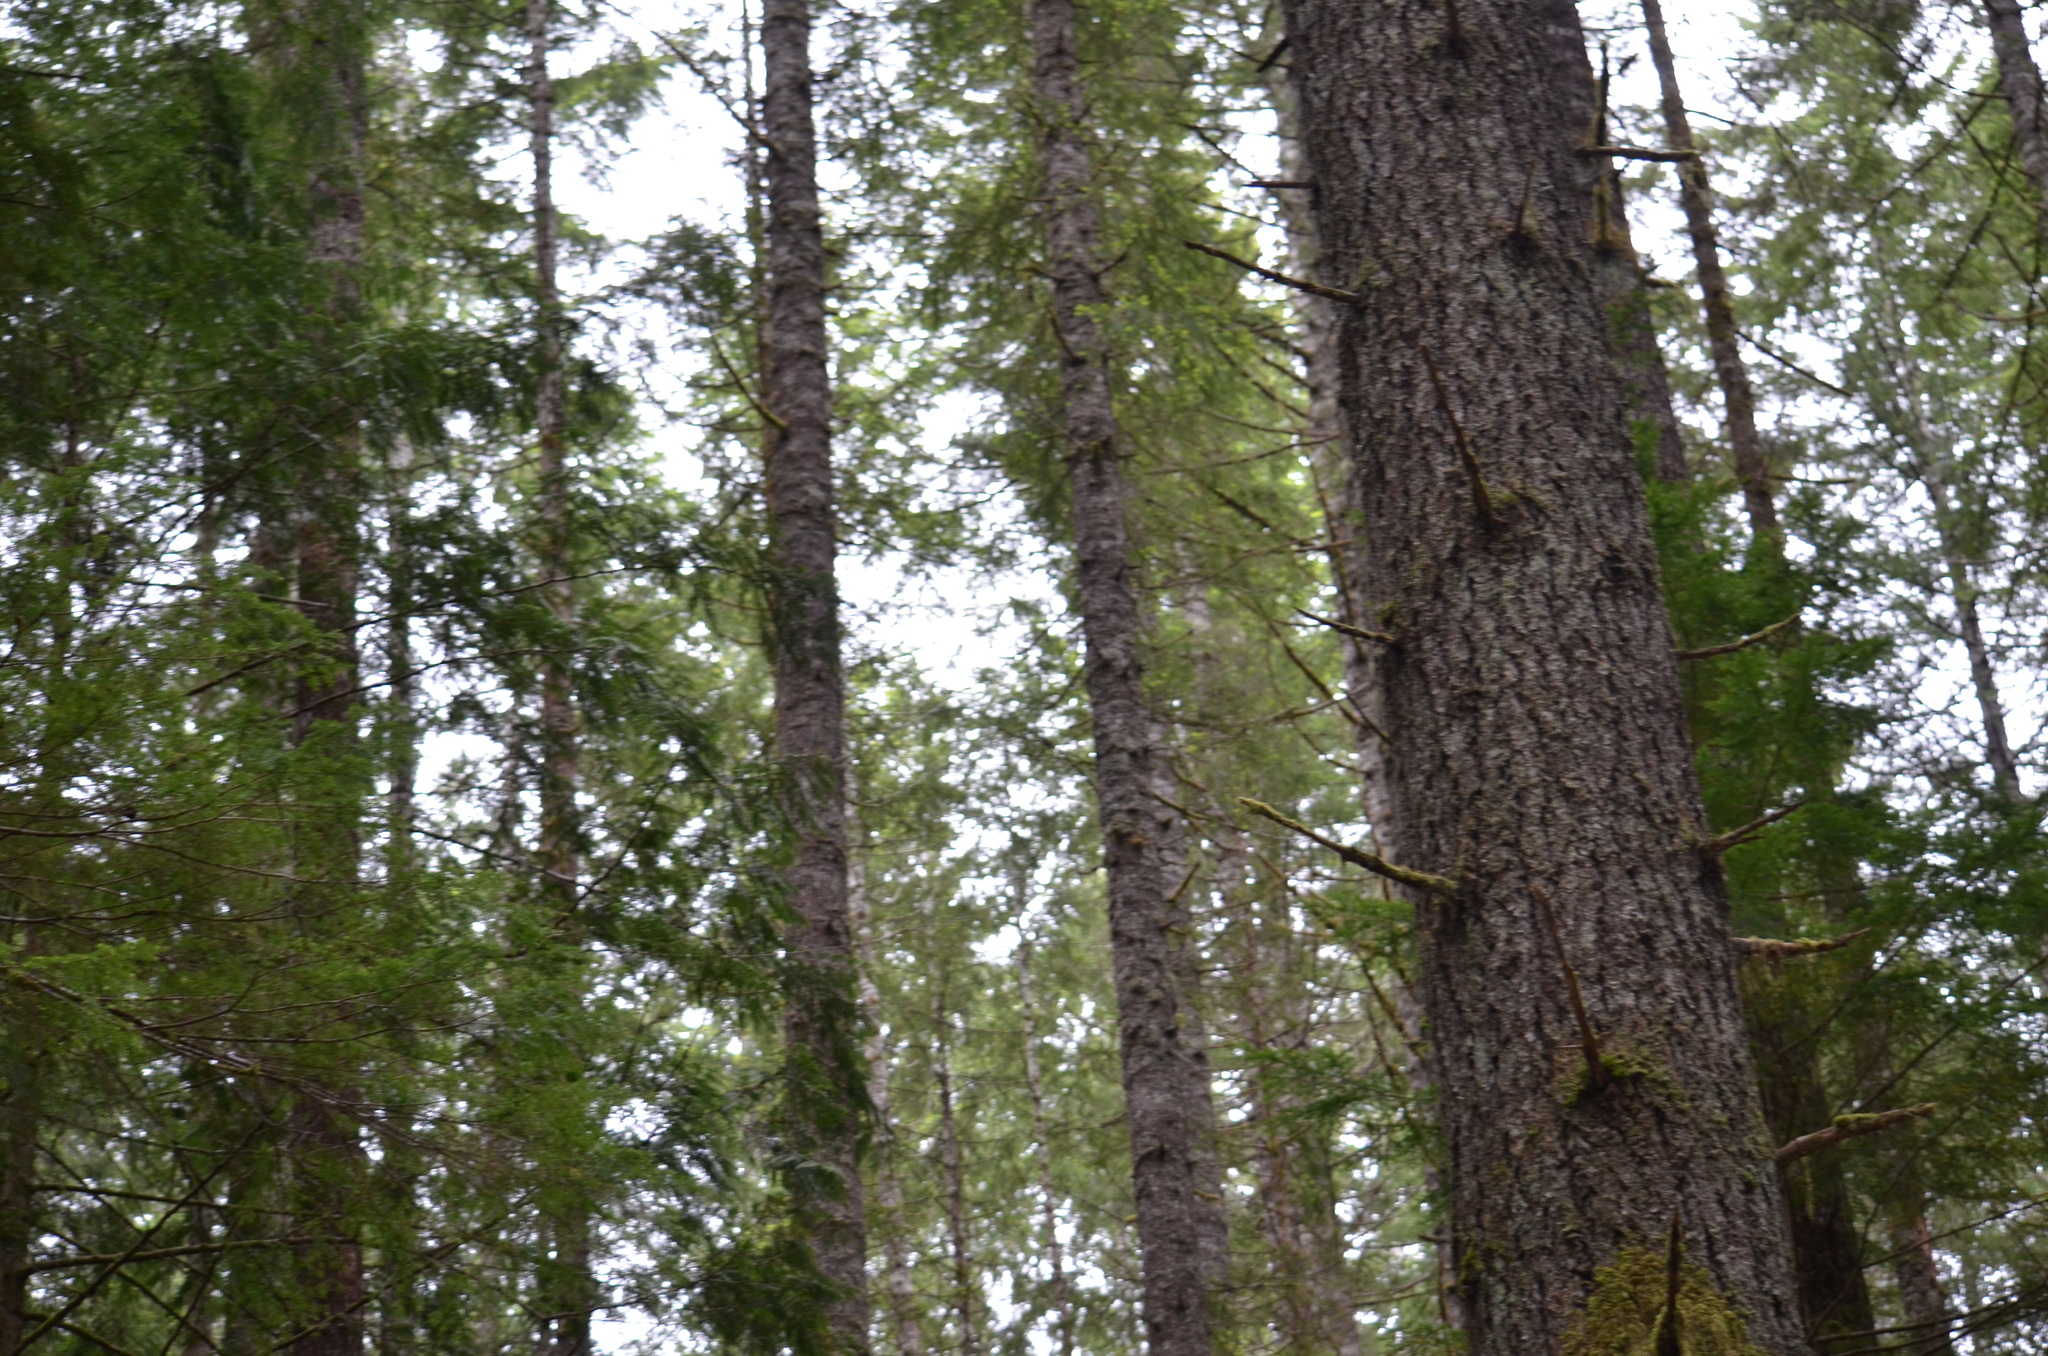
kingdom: Plantae
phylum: Tracheophyta
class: Pinopsida
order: Pinales
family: Pinaceae
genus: Pseudotsuga
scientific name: Pseudotsuga menziesii
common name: Douglas fir
